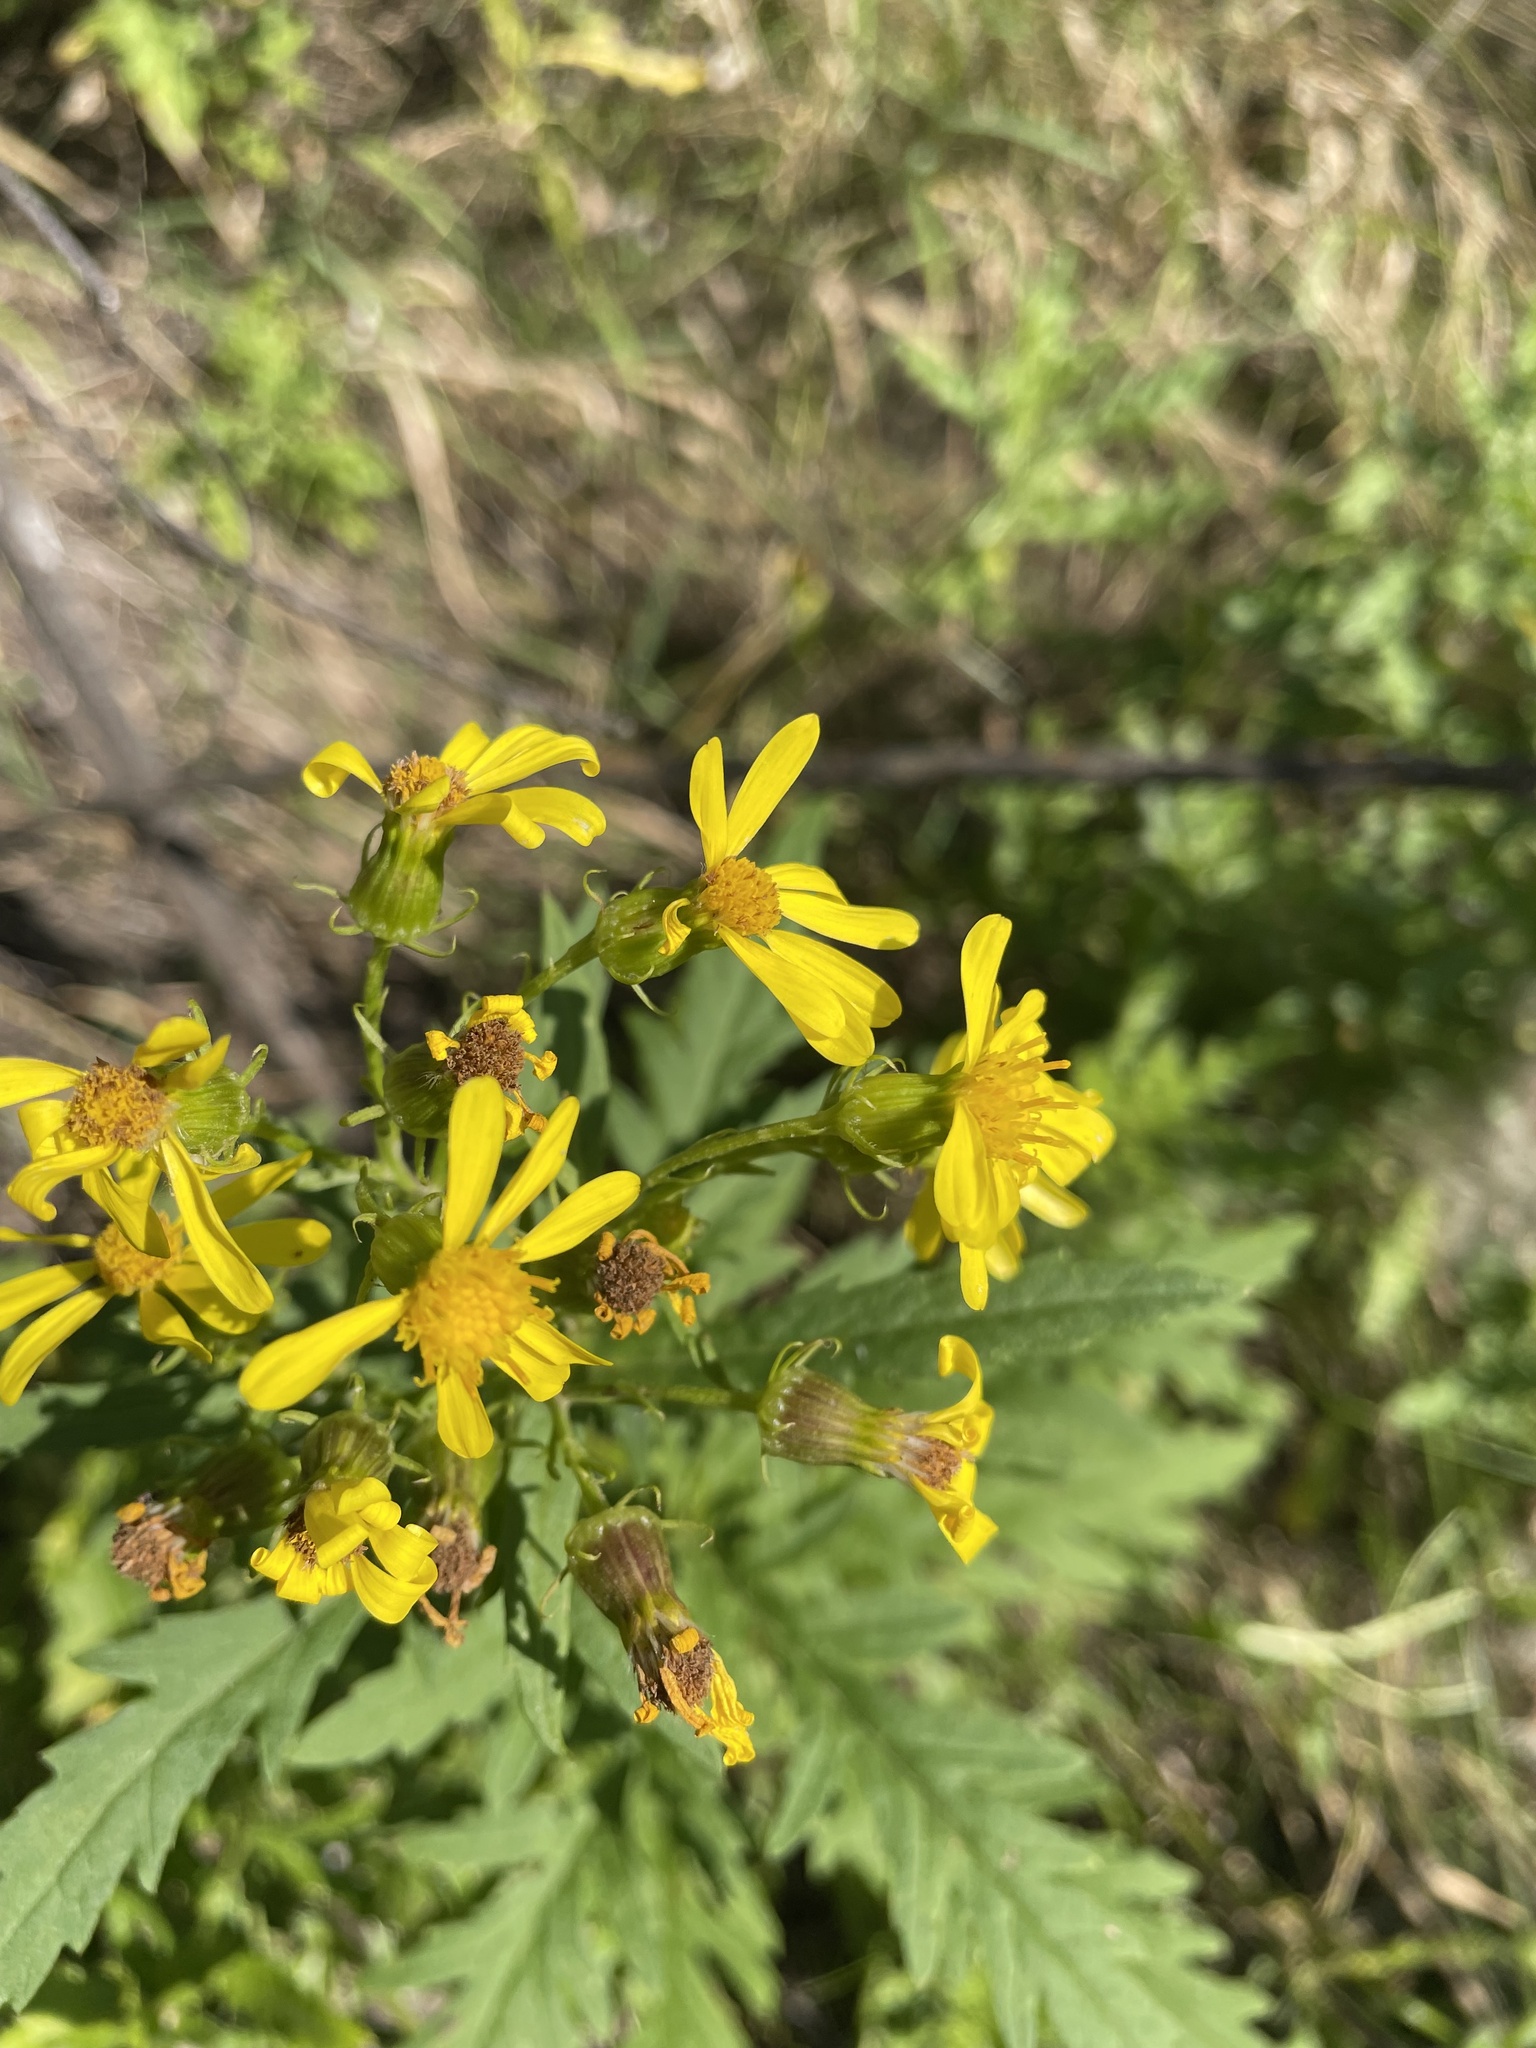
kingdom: Plantae
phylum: Tracheophyta
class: Magnoliopsida
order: Asterales
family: Asteraceae
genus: Senecio
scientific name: Senecio eremophilus
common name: Desert ragwort
